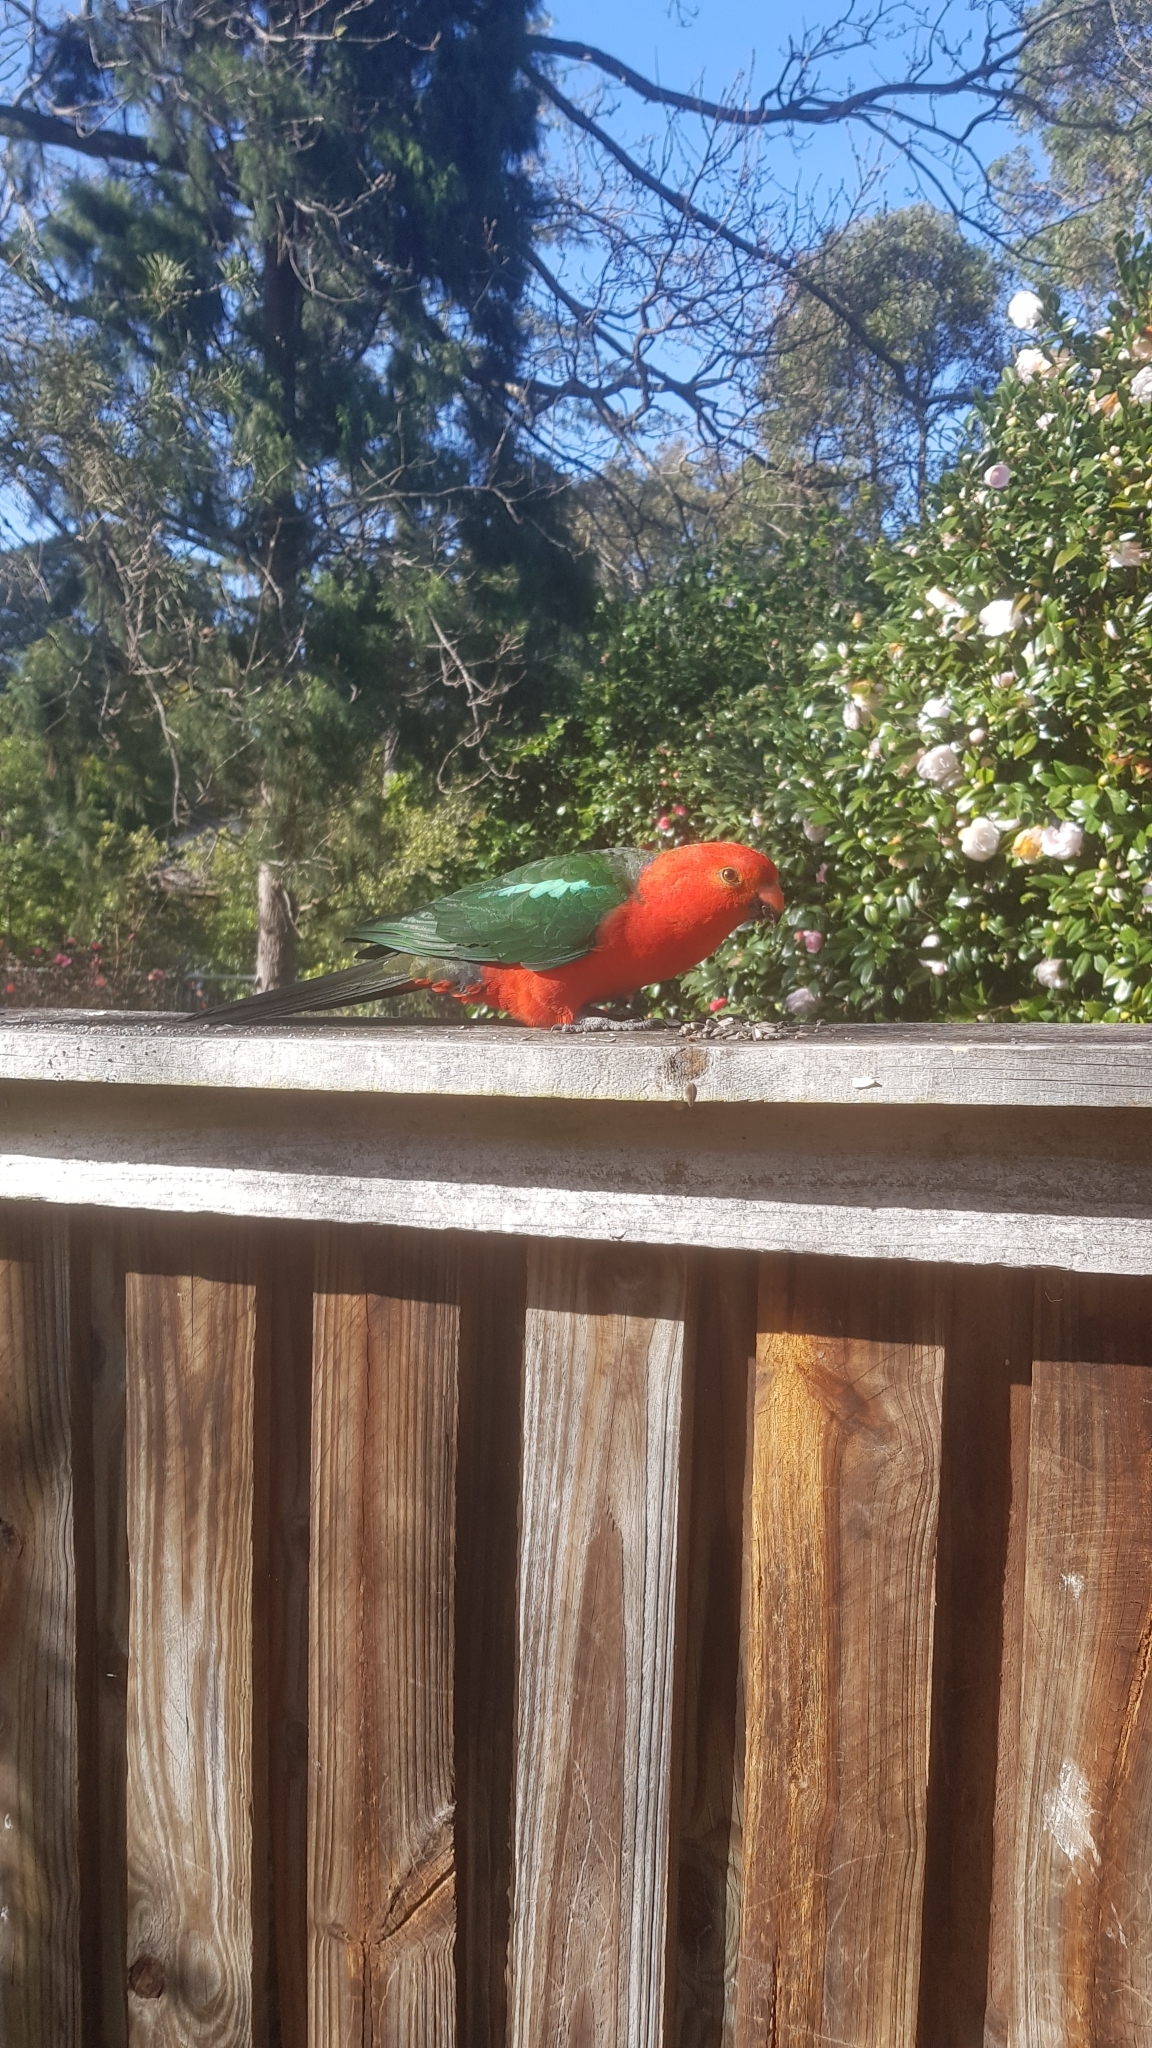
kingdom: Animalia
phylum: Chordata
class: Aves
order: Psittaciformes
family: Psittacidae
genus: Alisterus
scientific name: Alisterus scapularis
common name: Australian king parrot
